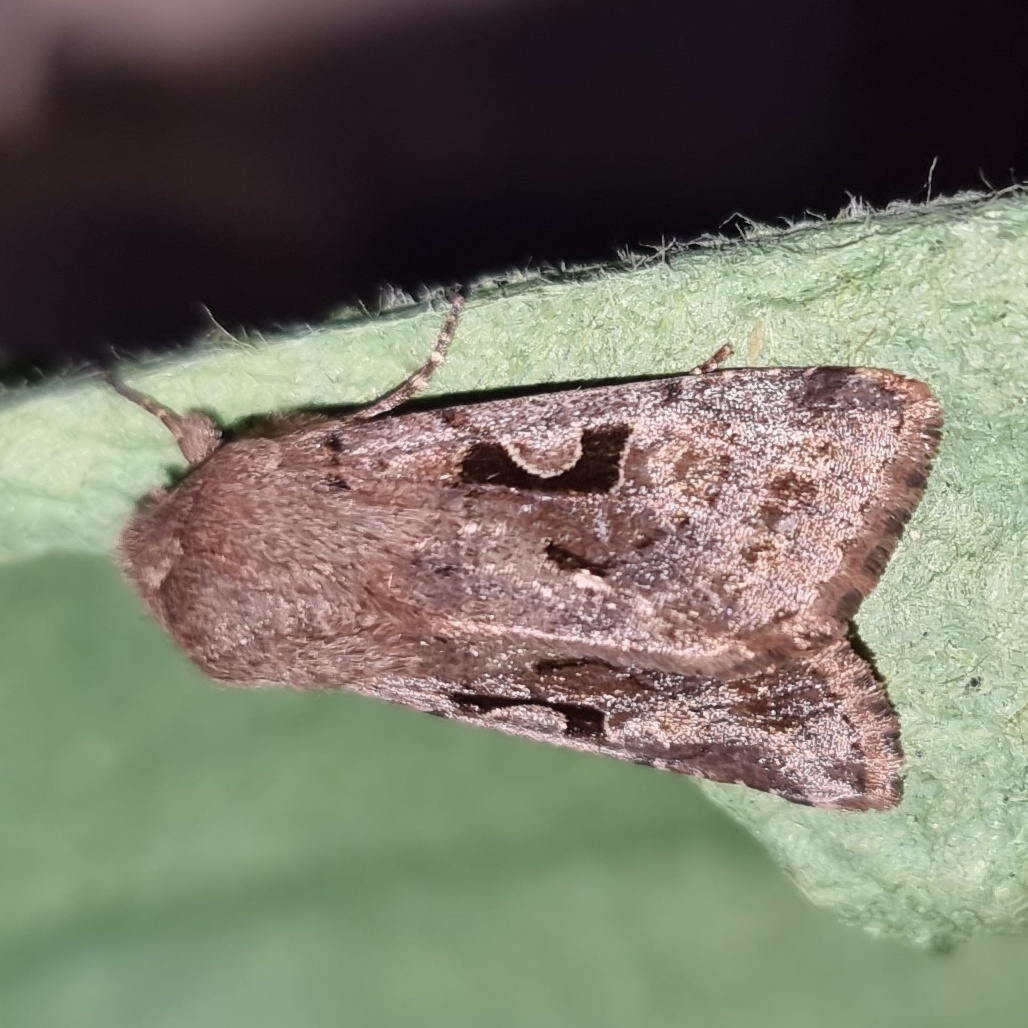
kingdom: Animalia
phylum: Arthropoda
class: Insecta
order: Lepidoptera
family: Noctuidae
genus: Orthosia
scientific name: Orthosia gothica
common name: Hebrew character
